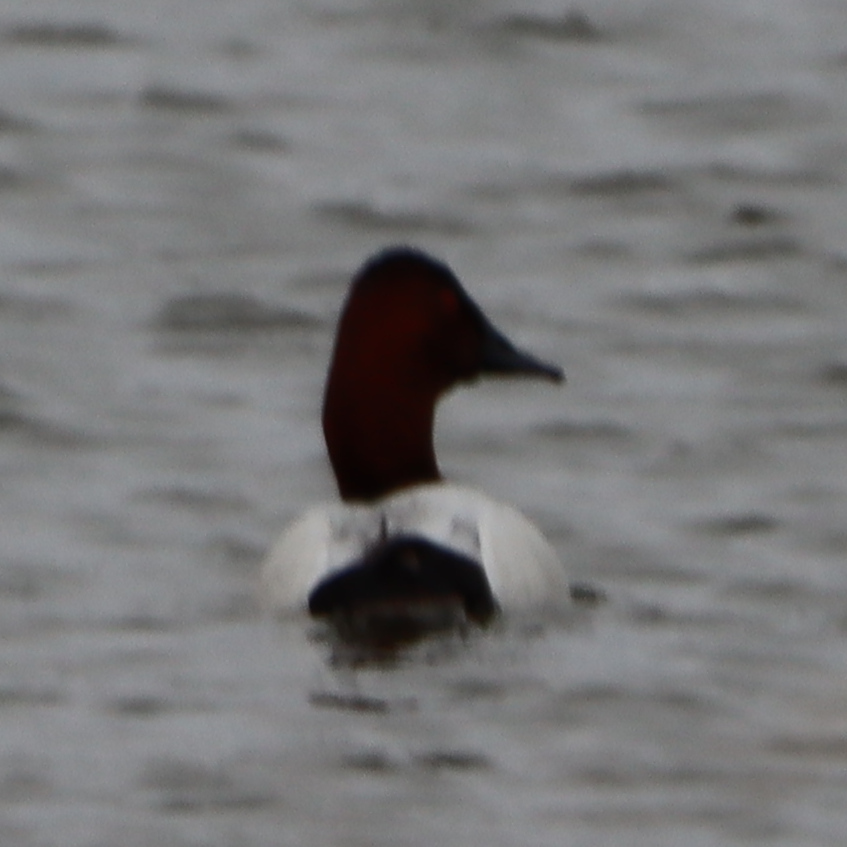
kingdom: Animalia
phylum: Chordata
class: Aves
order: Anseriformes
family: Anatidae
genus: Aythya
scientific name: Aythya valisineria
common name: Canvasback
